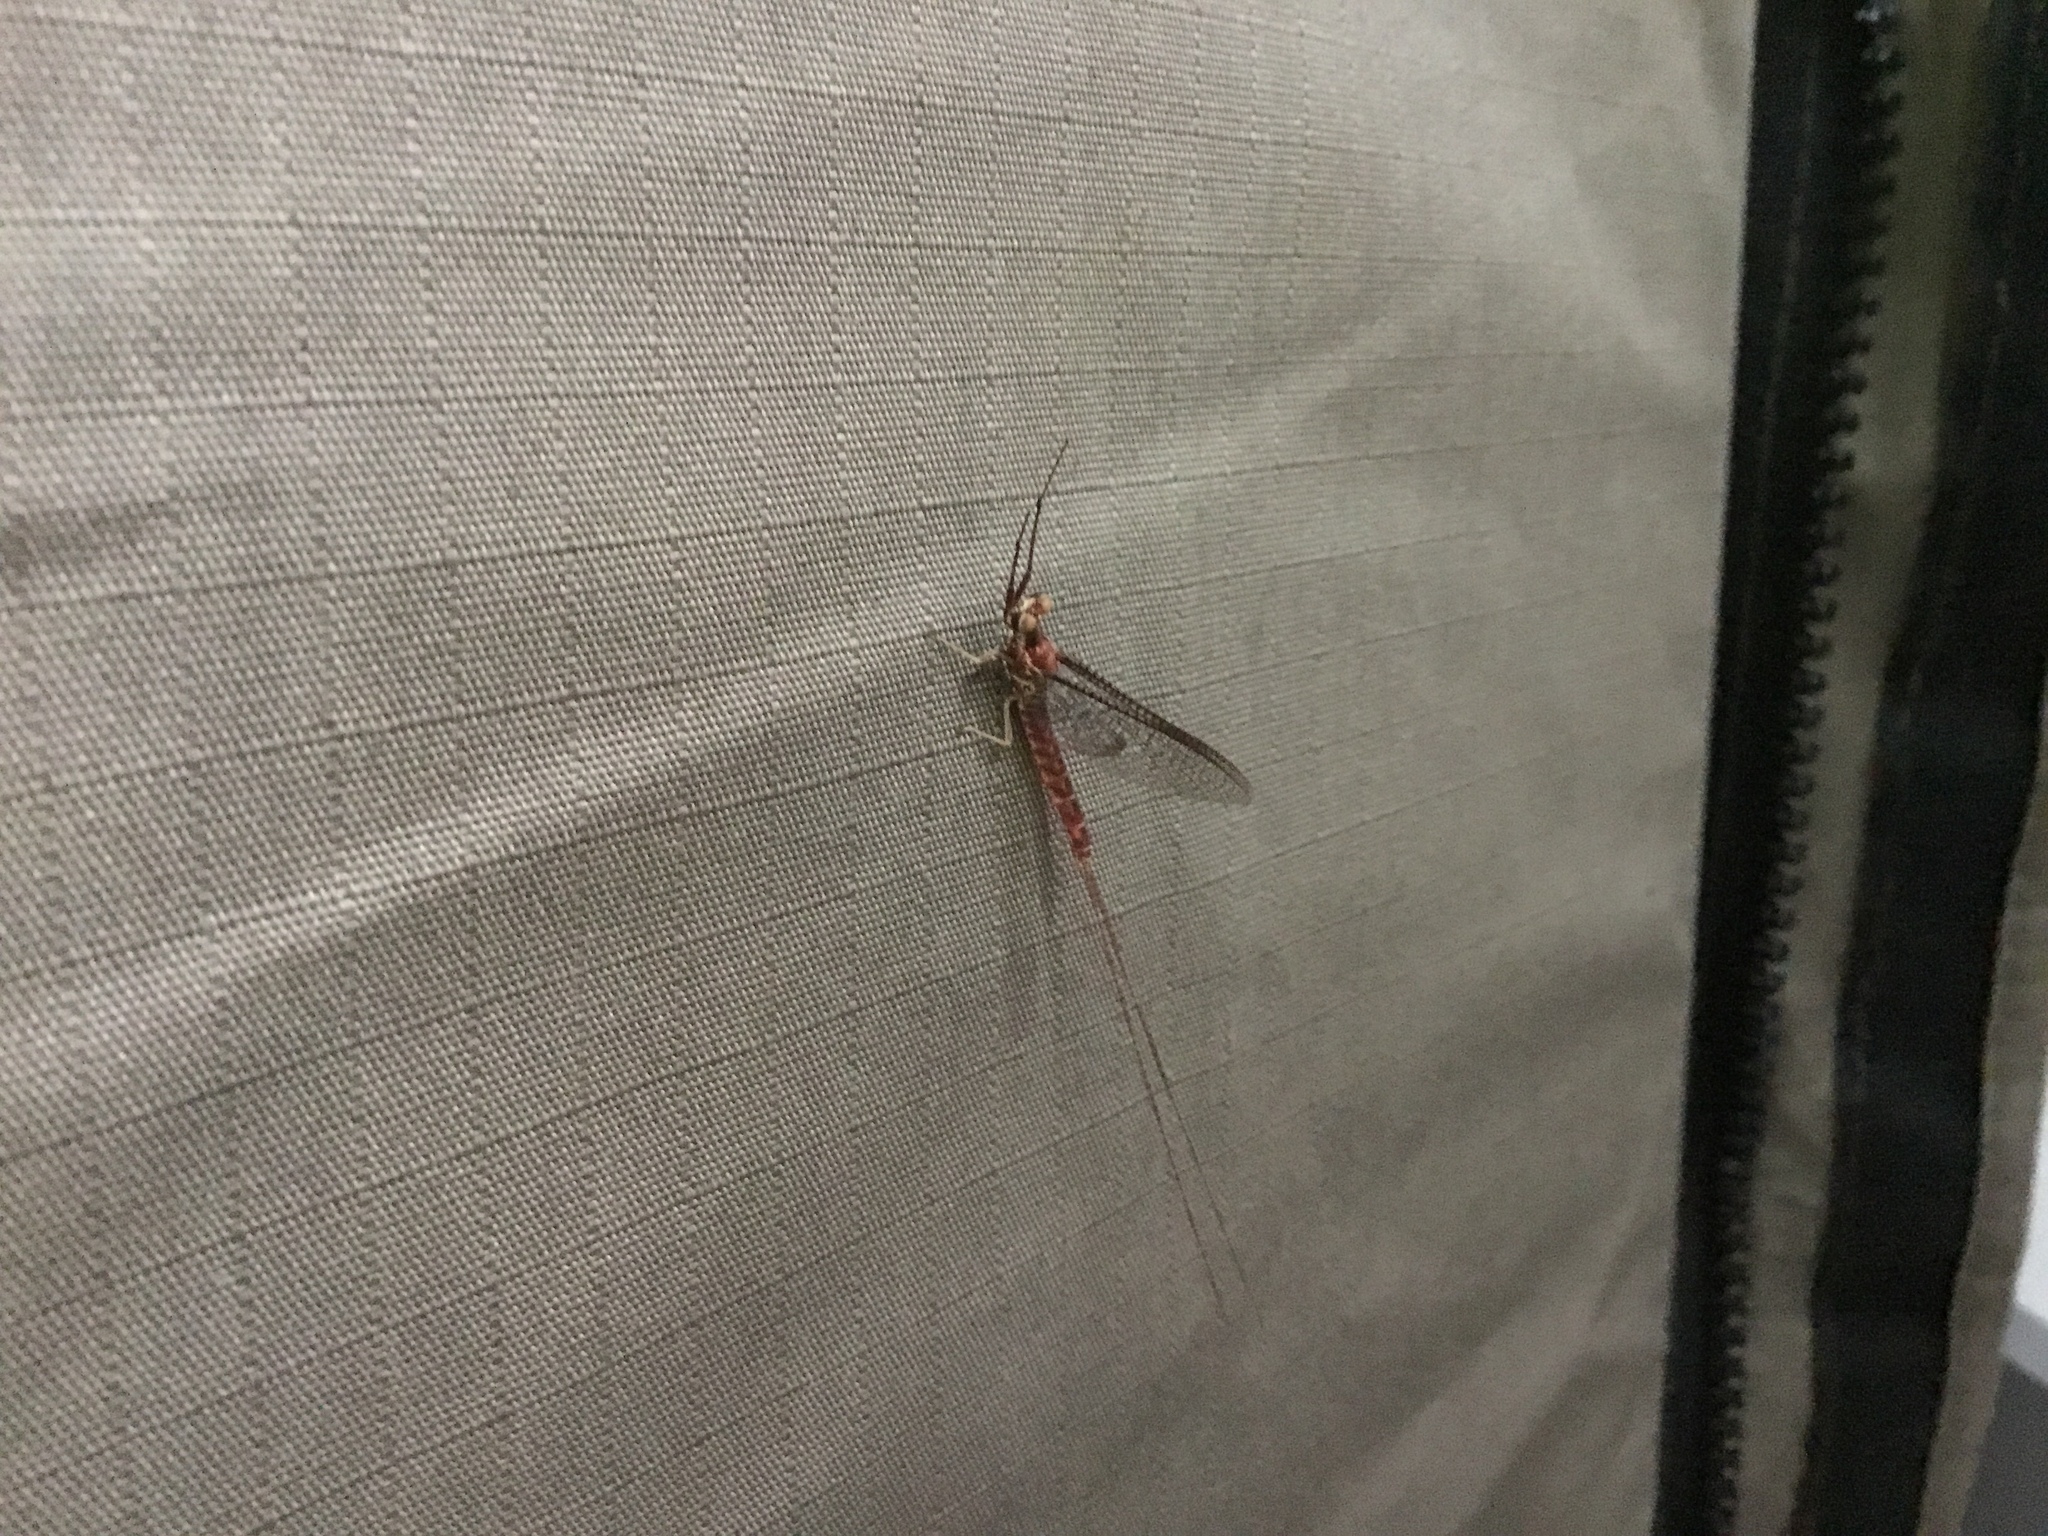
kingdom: Animalia
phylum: Arthropoda
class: Insecta
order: Ephemeroptera
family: Ephemeridae
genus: Hexagenia
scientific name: Hexagenia limbata
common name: Giant mayfly
